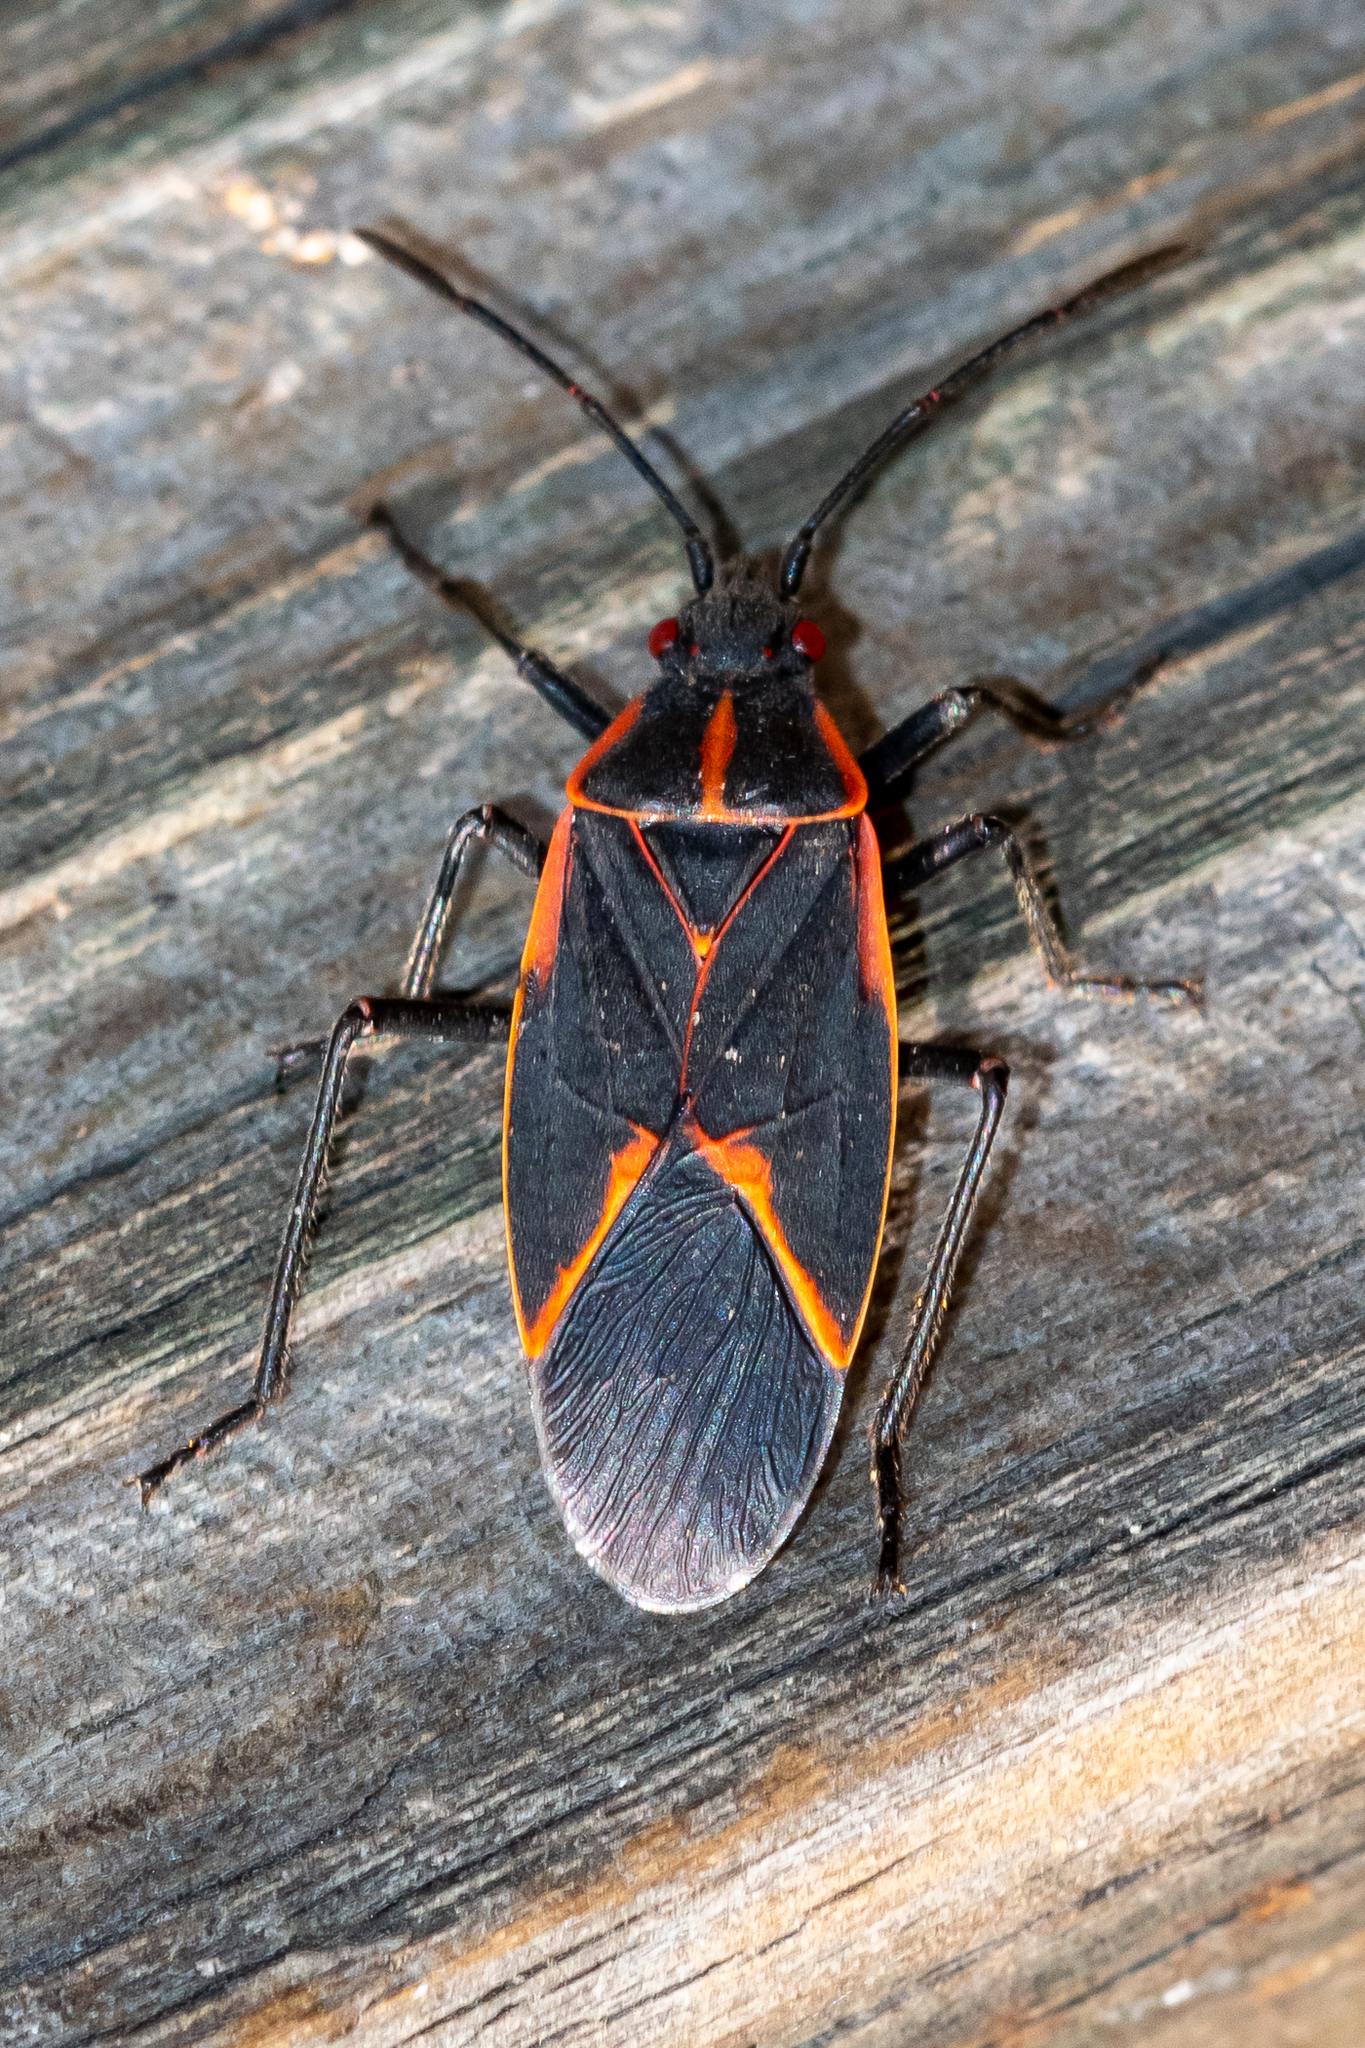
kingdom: Animalia
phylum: Arthropoda
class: Insecta
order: Hemiptera
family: Rhopalidae
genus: Boisea
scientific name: Boisea trivittata
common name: Boxelder bug
